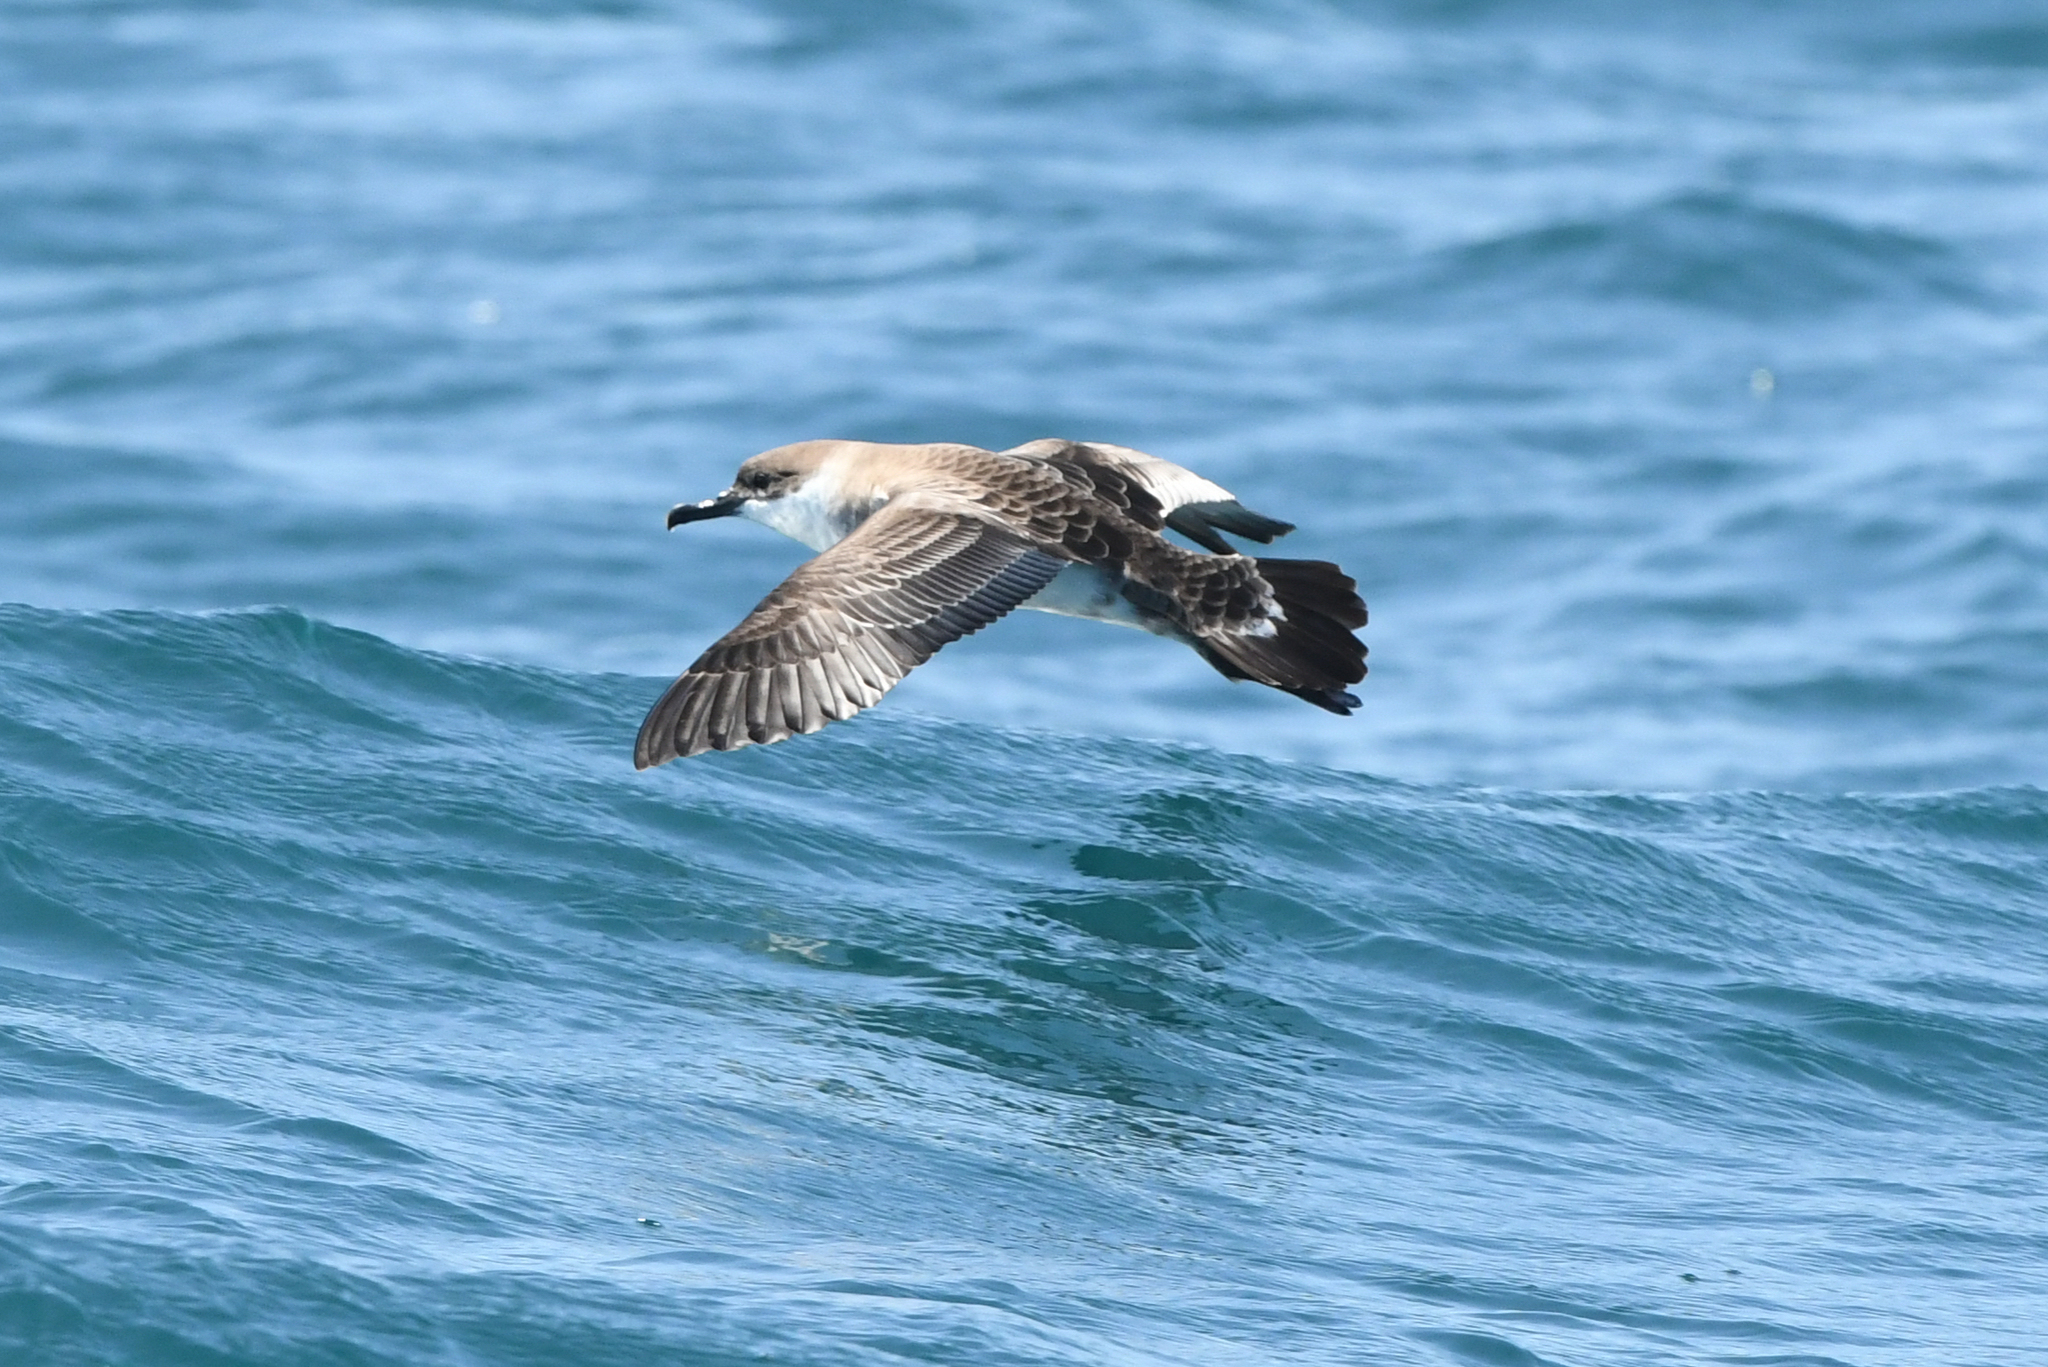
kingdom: Animalia
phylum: Chordata
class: Aves
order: Procellariiformes
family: Procellariidae
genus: Puffinus
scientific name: Puffinus gravis
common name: Great shearwater
